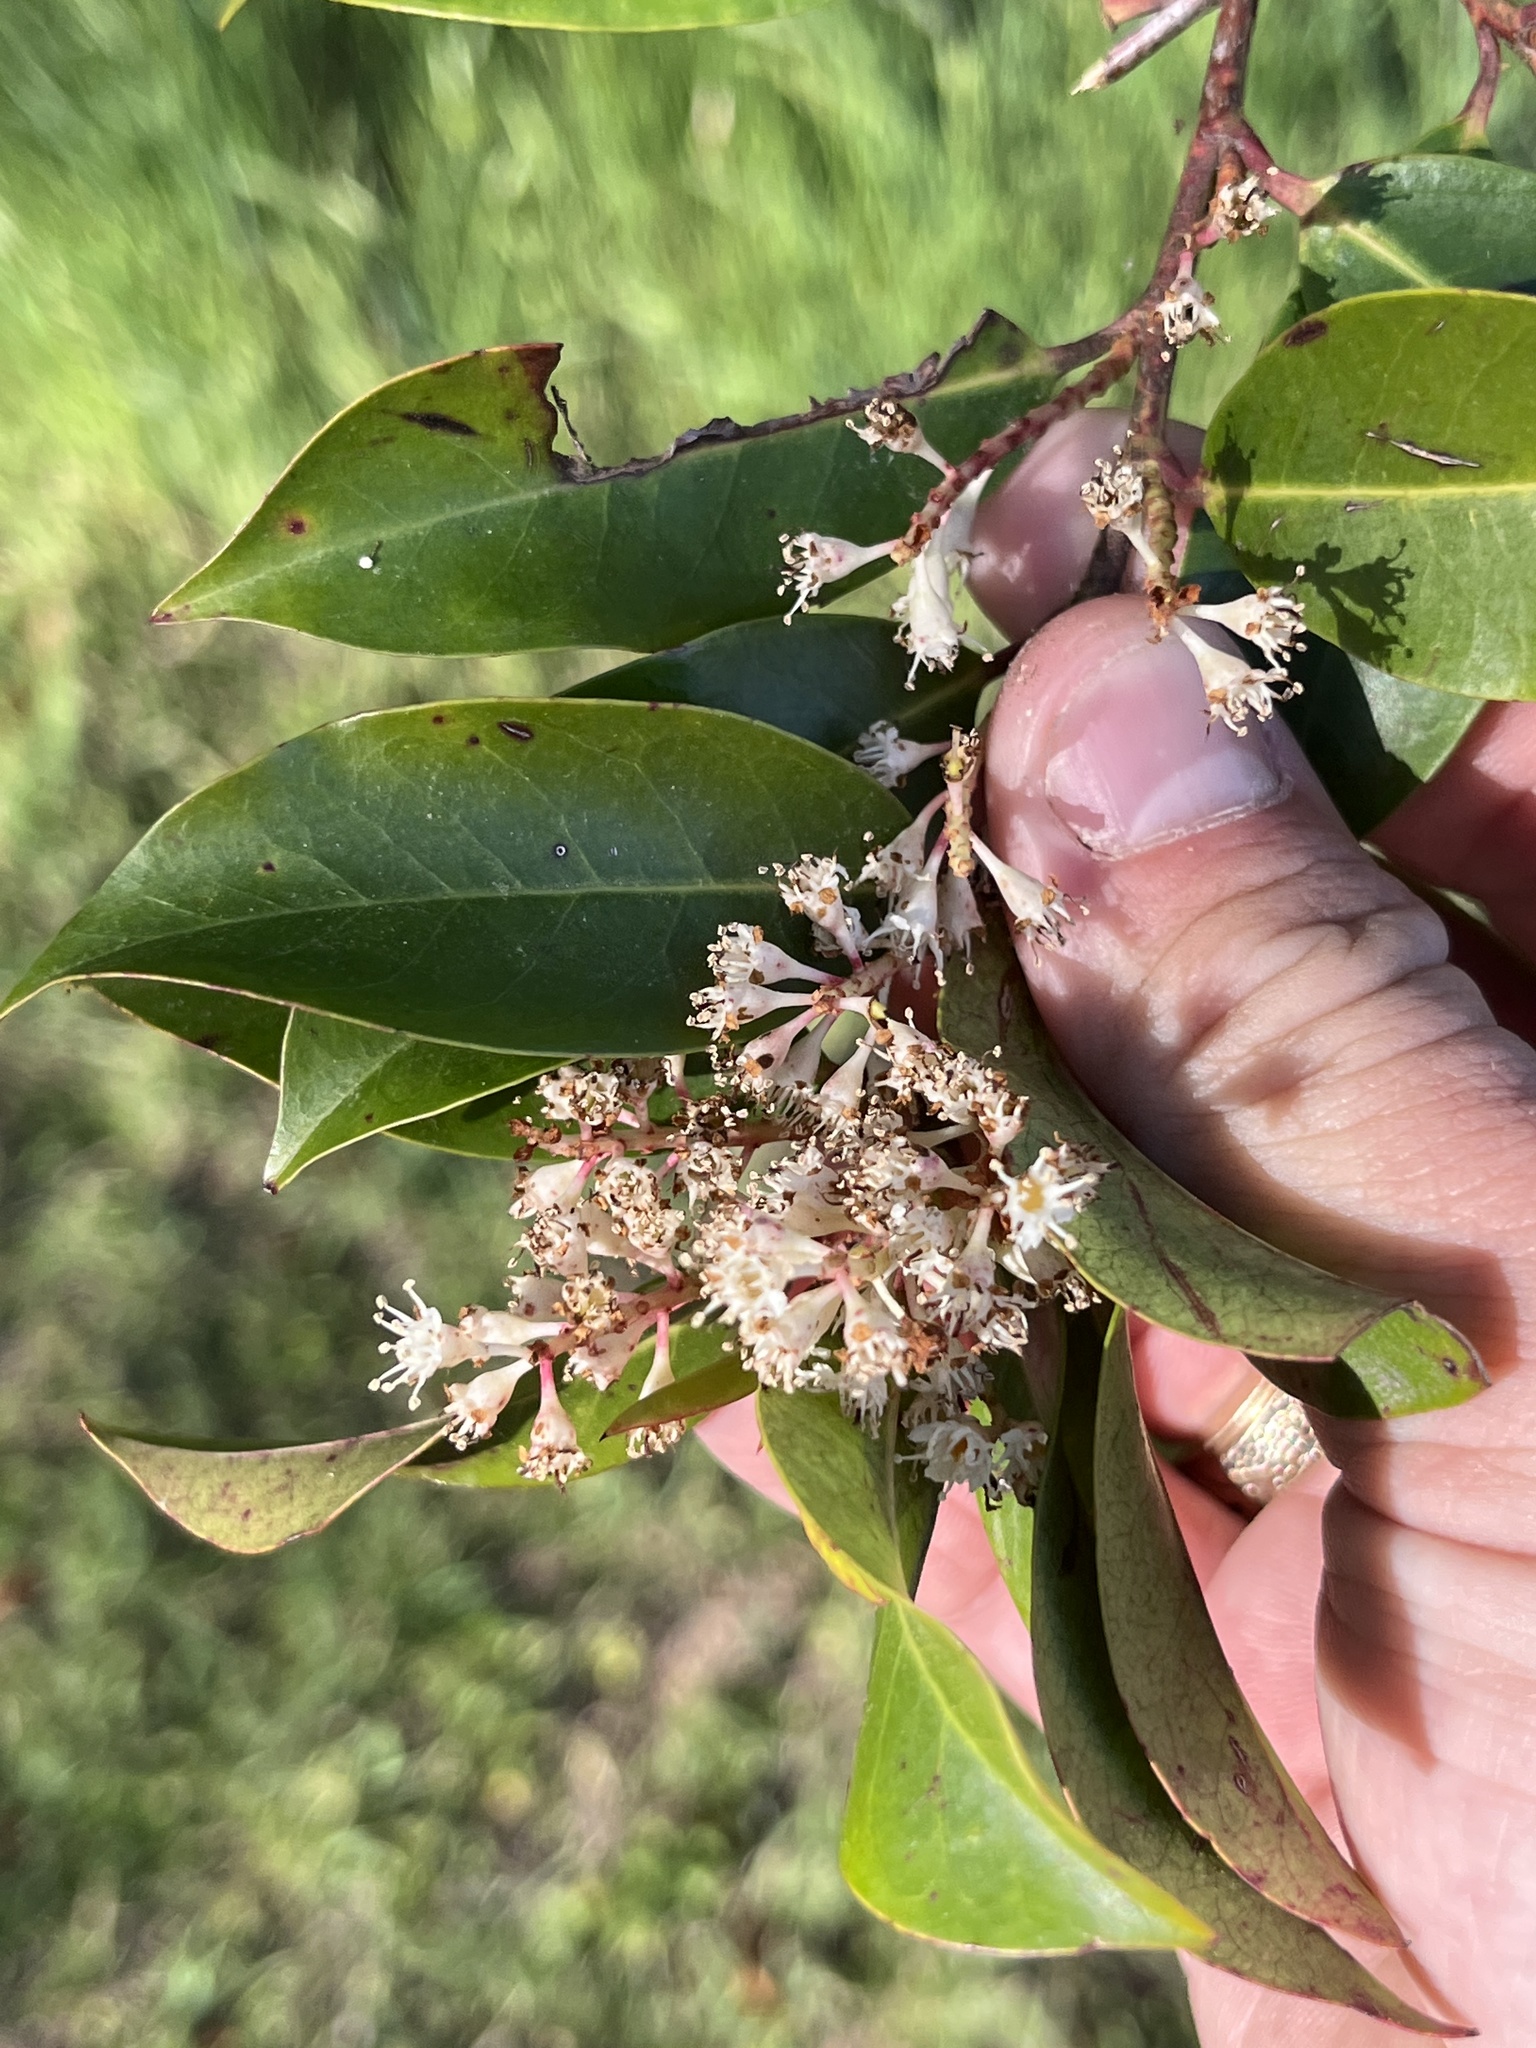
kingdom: Plantae
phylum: Tracheophyta
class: Magnoliopsida
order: Rosales
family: Rosaceae
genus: Prunus
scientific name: Prunus caroliniana
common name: Carolina laurel cherry
